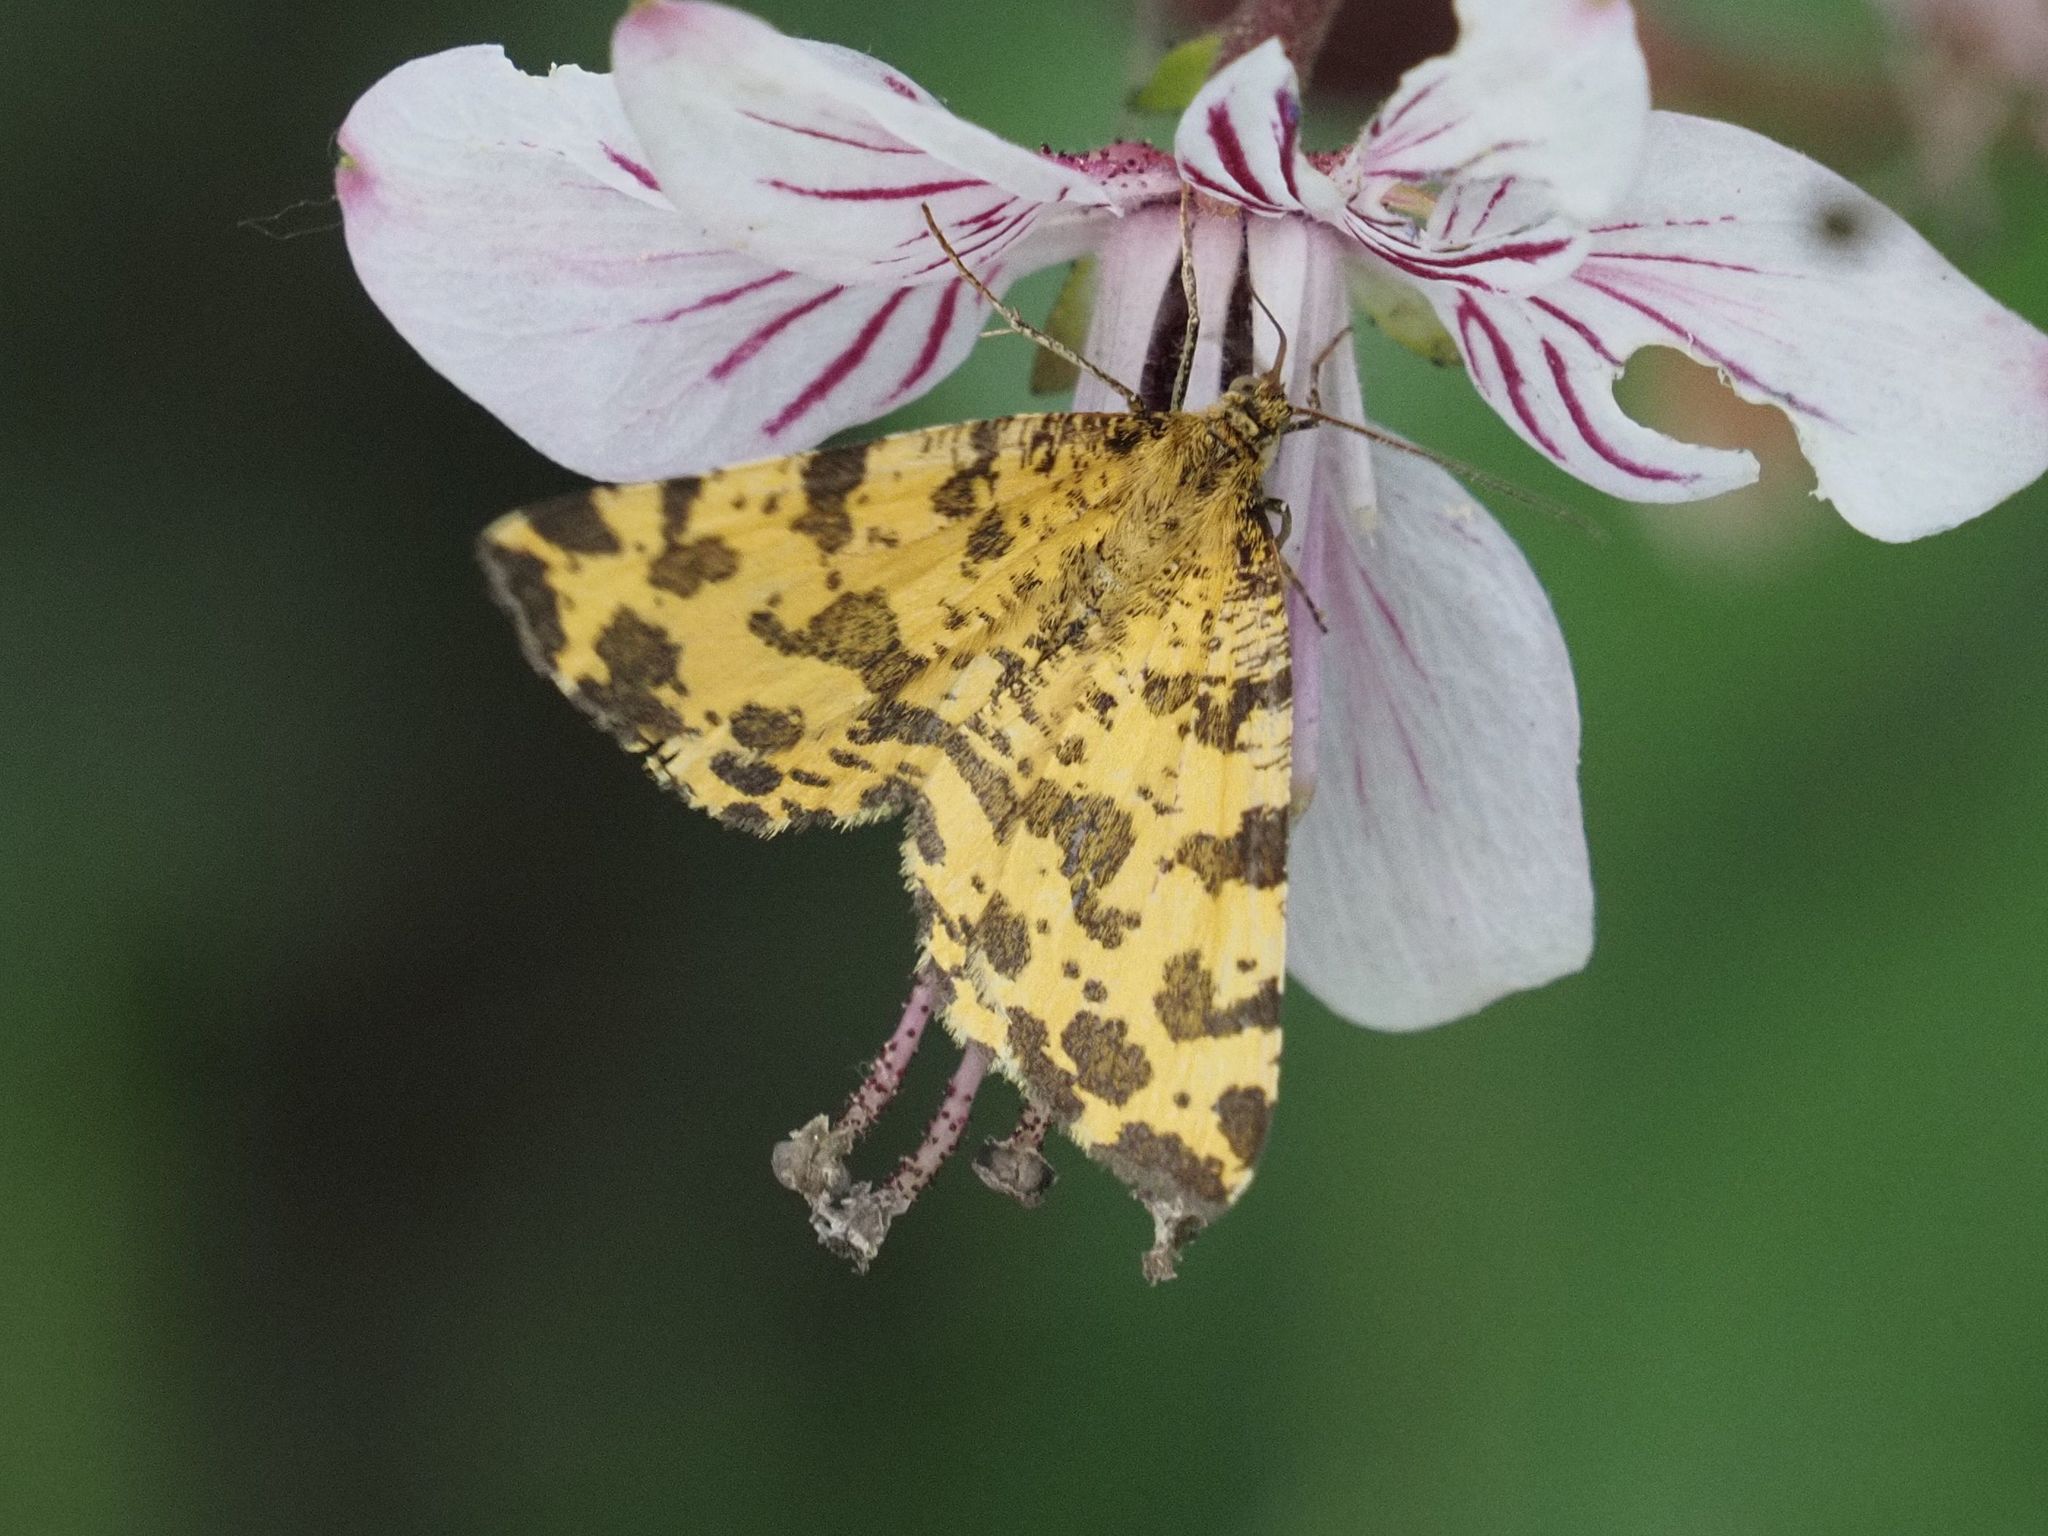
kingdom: Animalia
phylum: Arthropoda
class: Insecta
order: Lepidoptera
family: Geometridae
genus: Pseudopanthera
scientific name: Pseudopanthera macularia
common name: Speckled yellow
